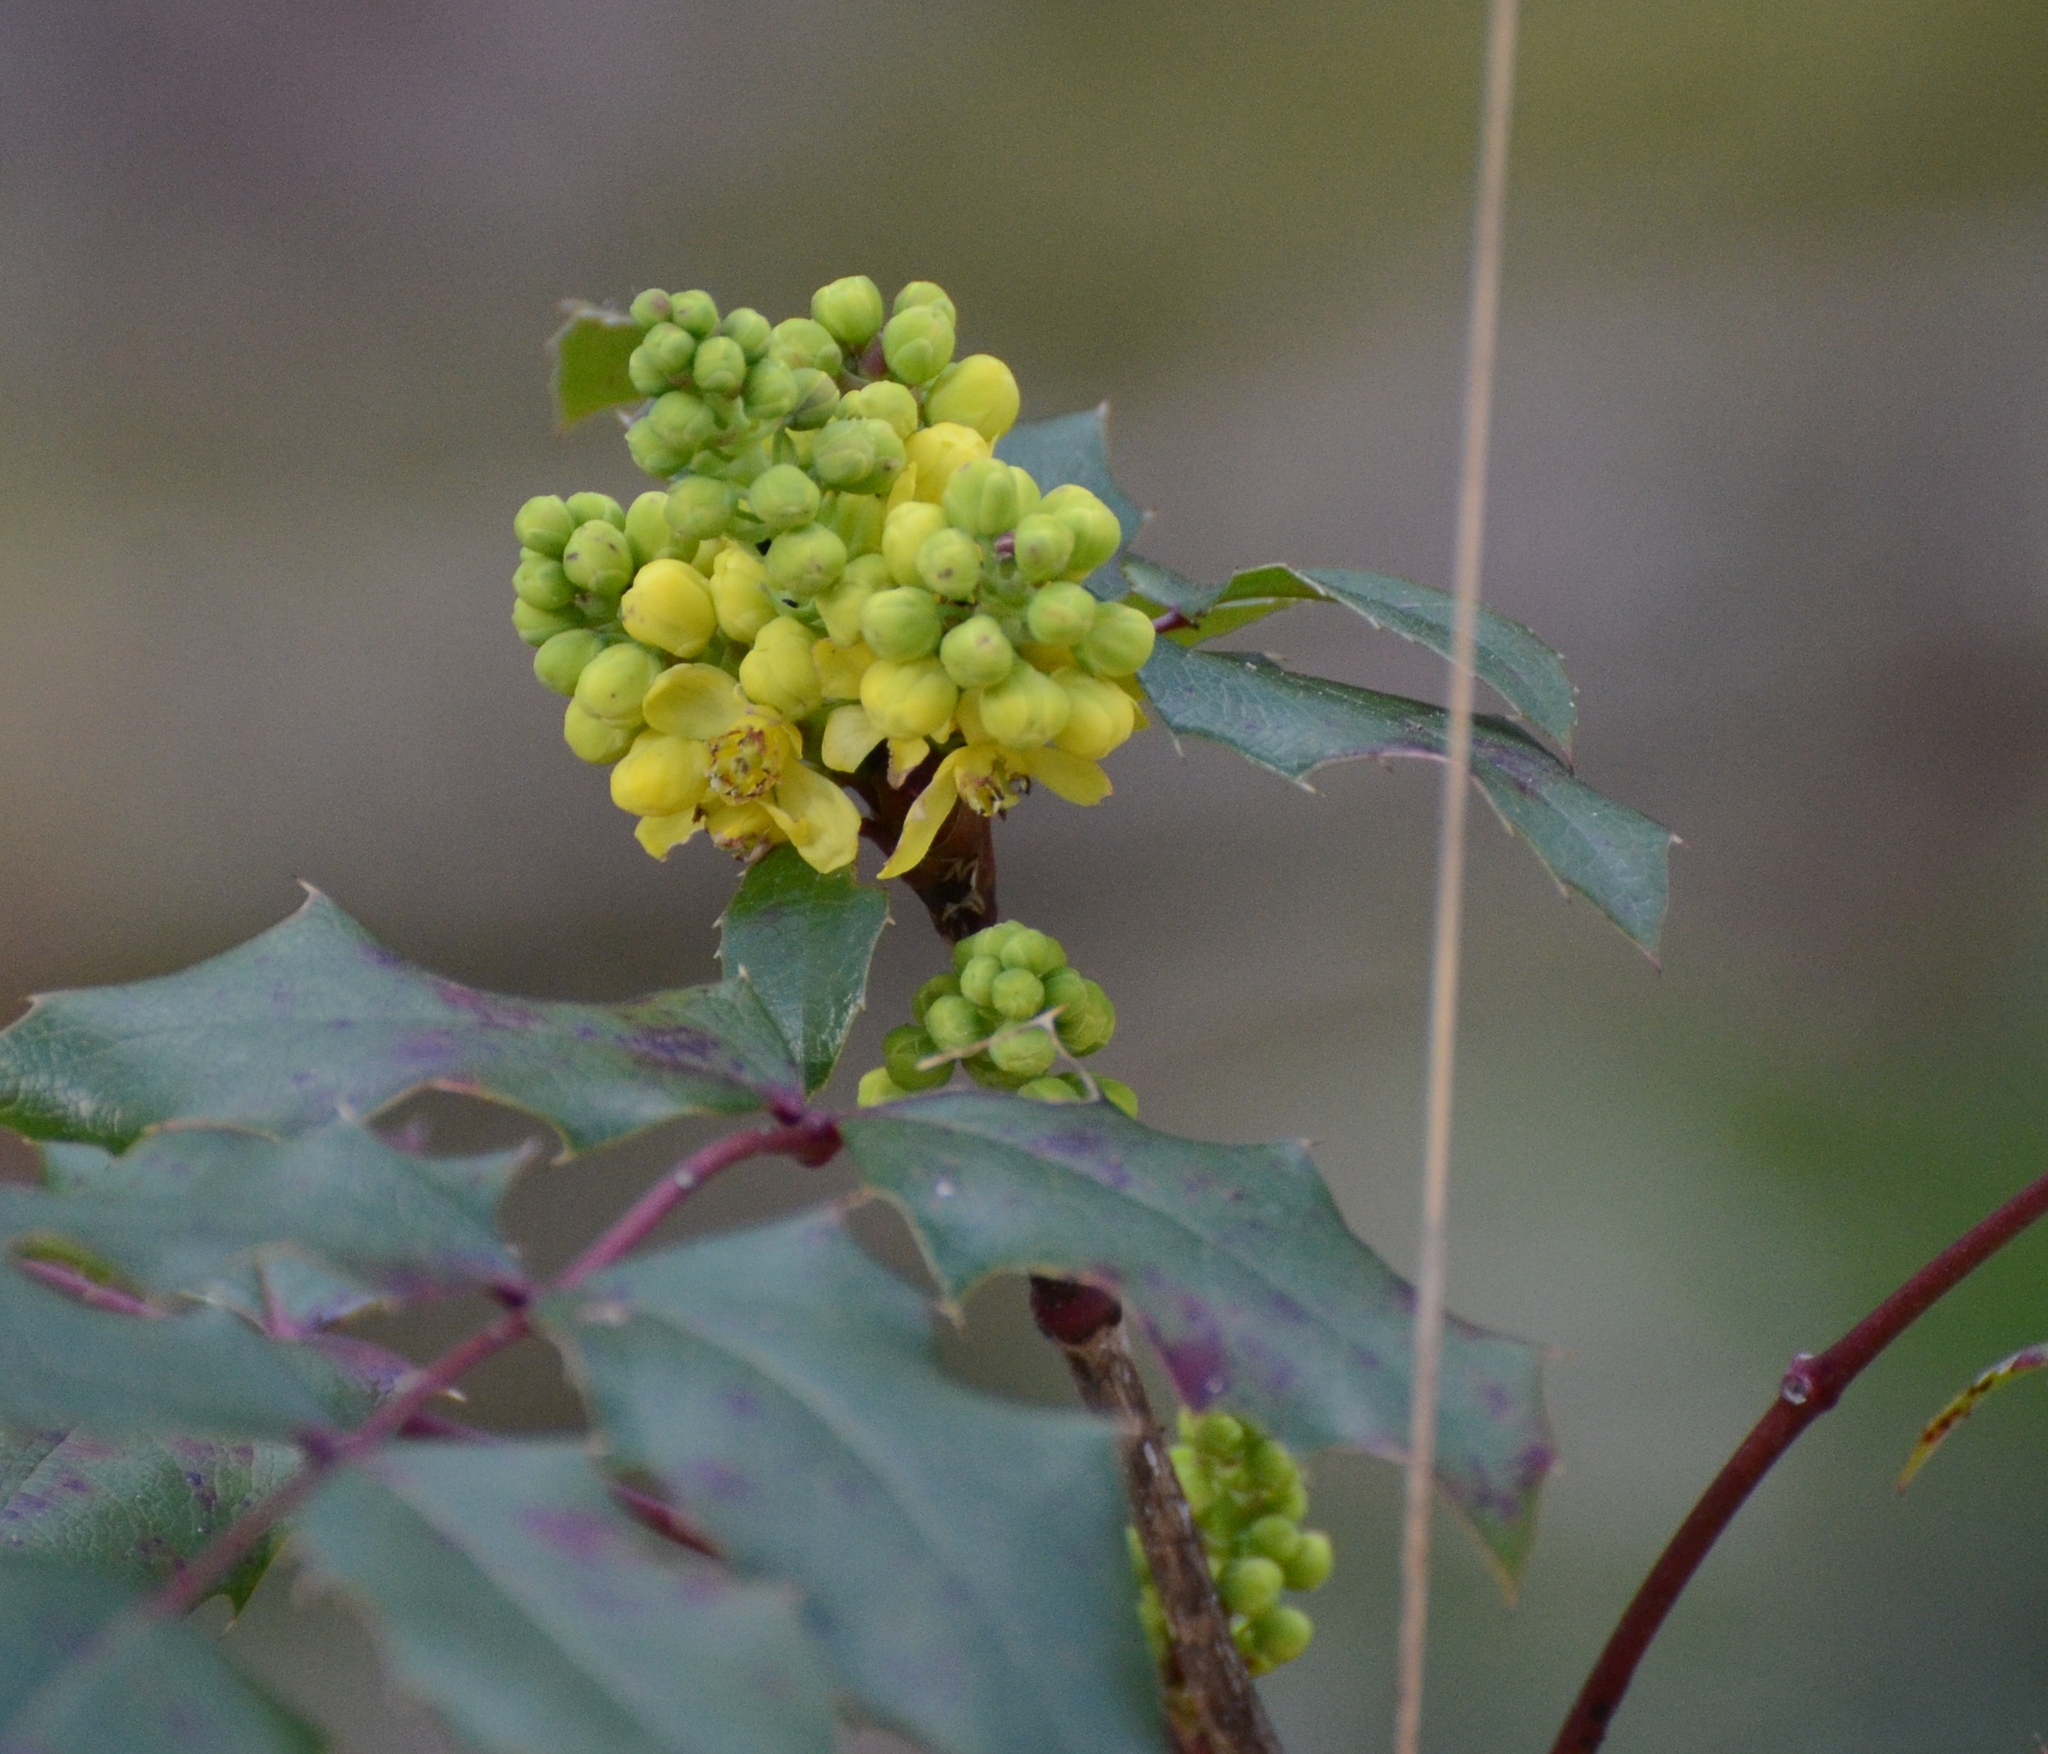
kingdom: Plantae
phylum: Tracheophyta
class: Magnoliopsida
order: Ranunculales
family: Berberidaceae
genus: Mahonia
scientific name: Mahonia aquifolium
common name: Oregon-grape
